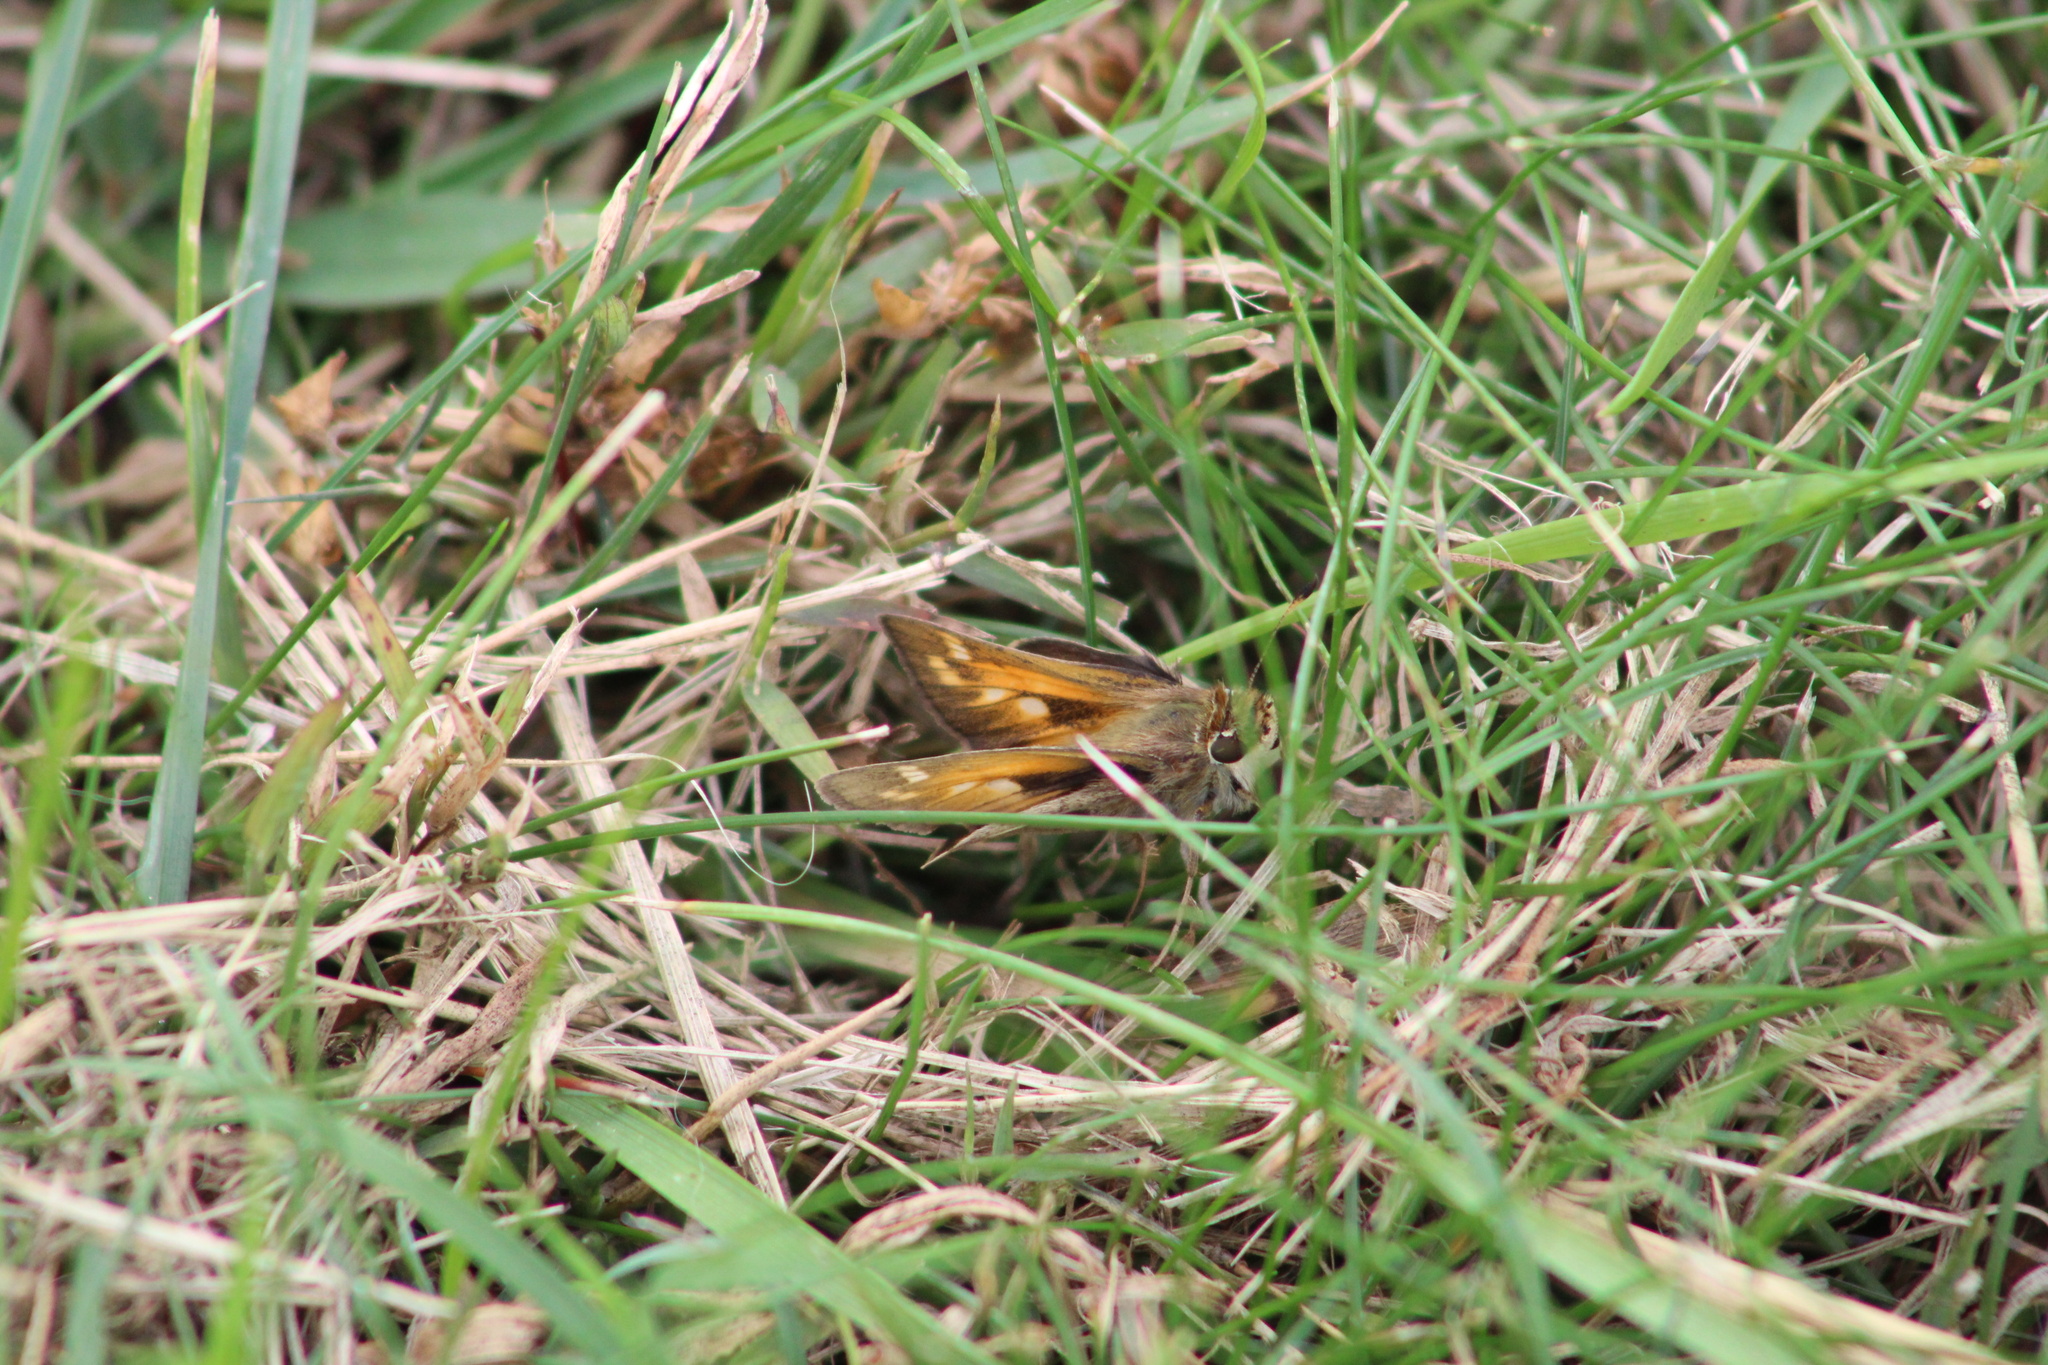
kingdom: Animalia
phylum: Arthropoda
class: Insecta
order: Lepidoptera
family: Hesperiidae
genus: Atalopedes
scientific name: Atalopedes
